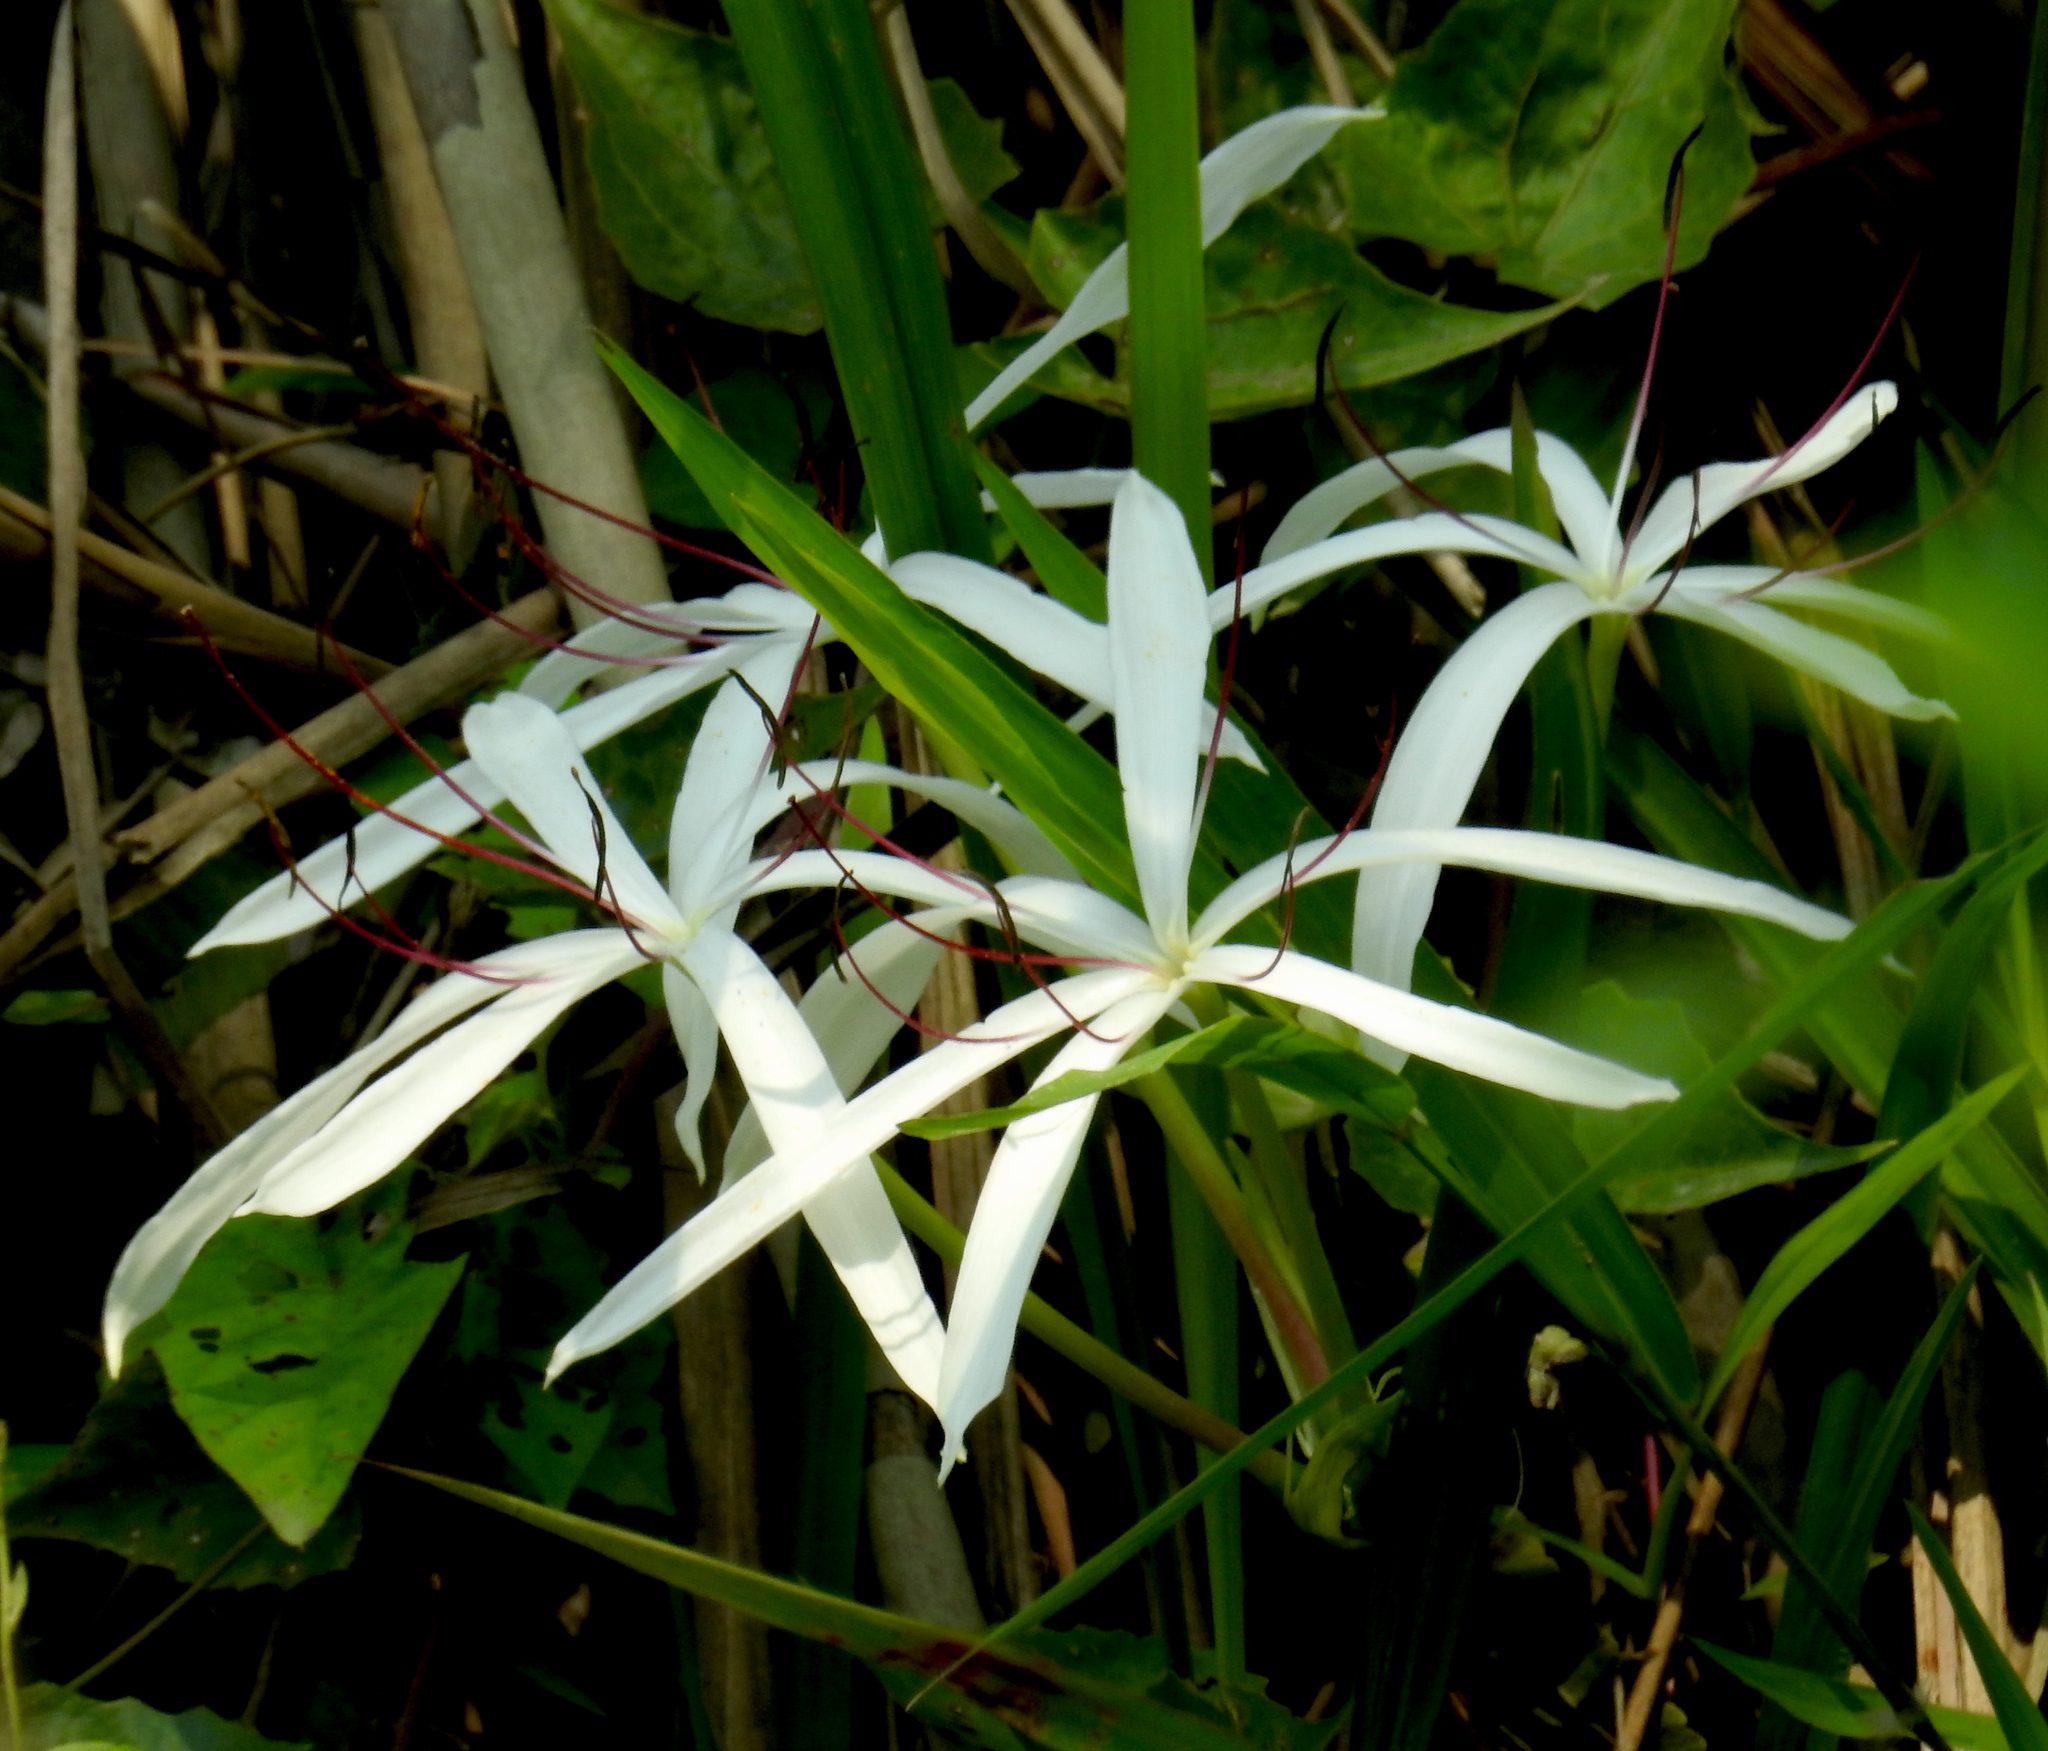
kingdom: Plantae
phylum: Tracheophyta
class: Liliopsida
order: Asparagales
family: Amaryllidaceae
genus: Crinum
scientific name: Crinum amoenum
